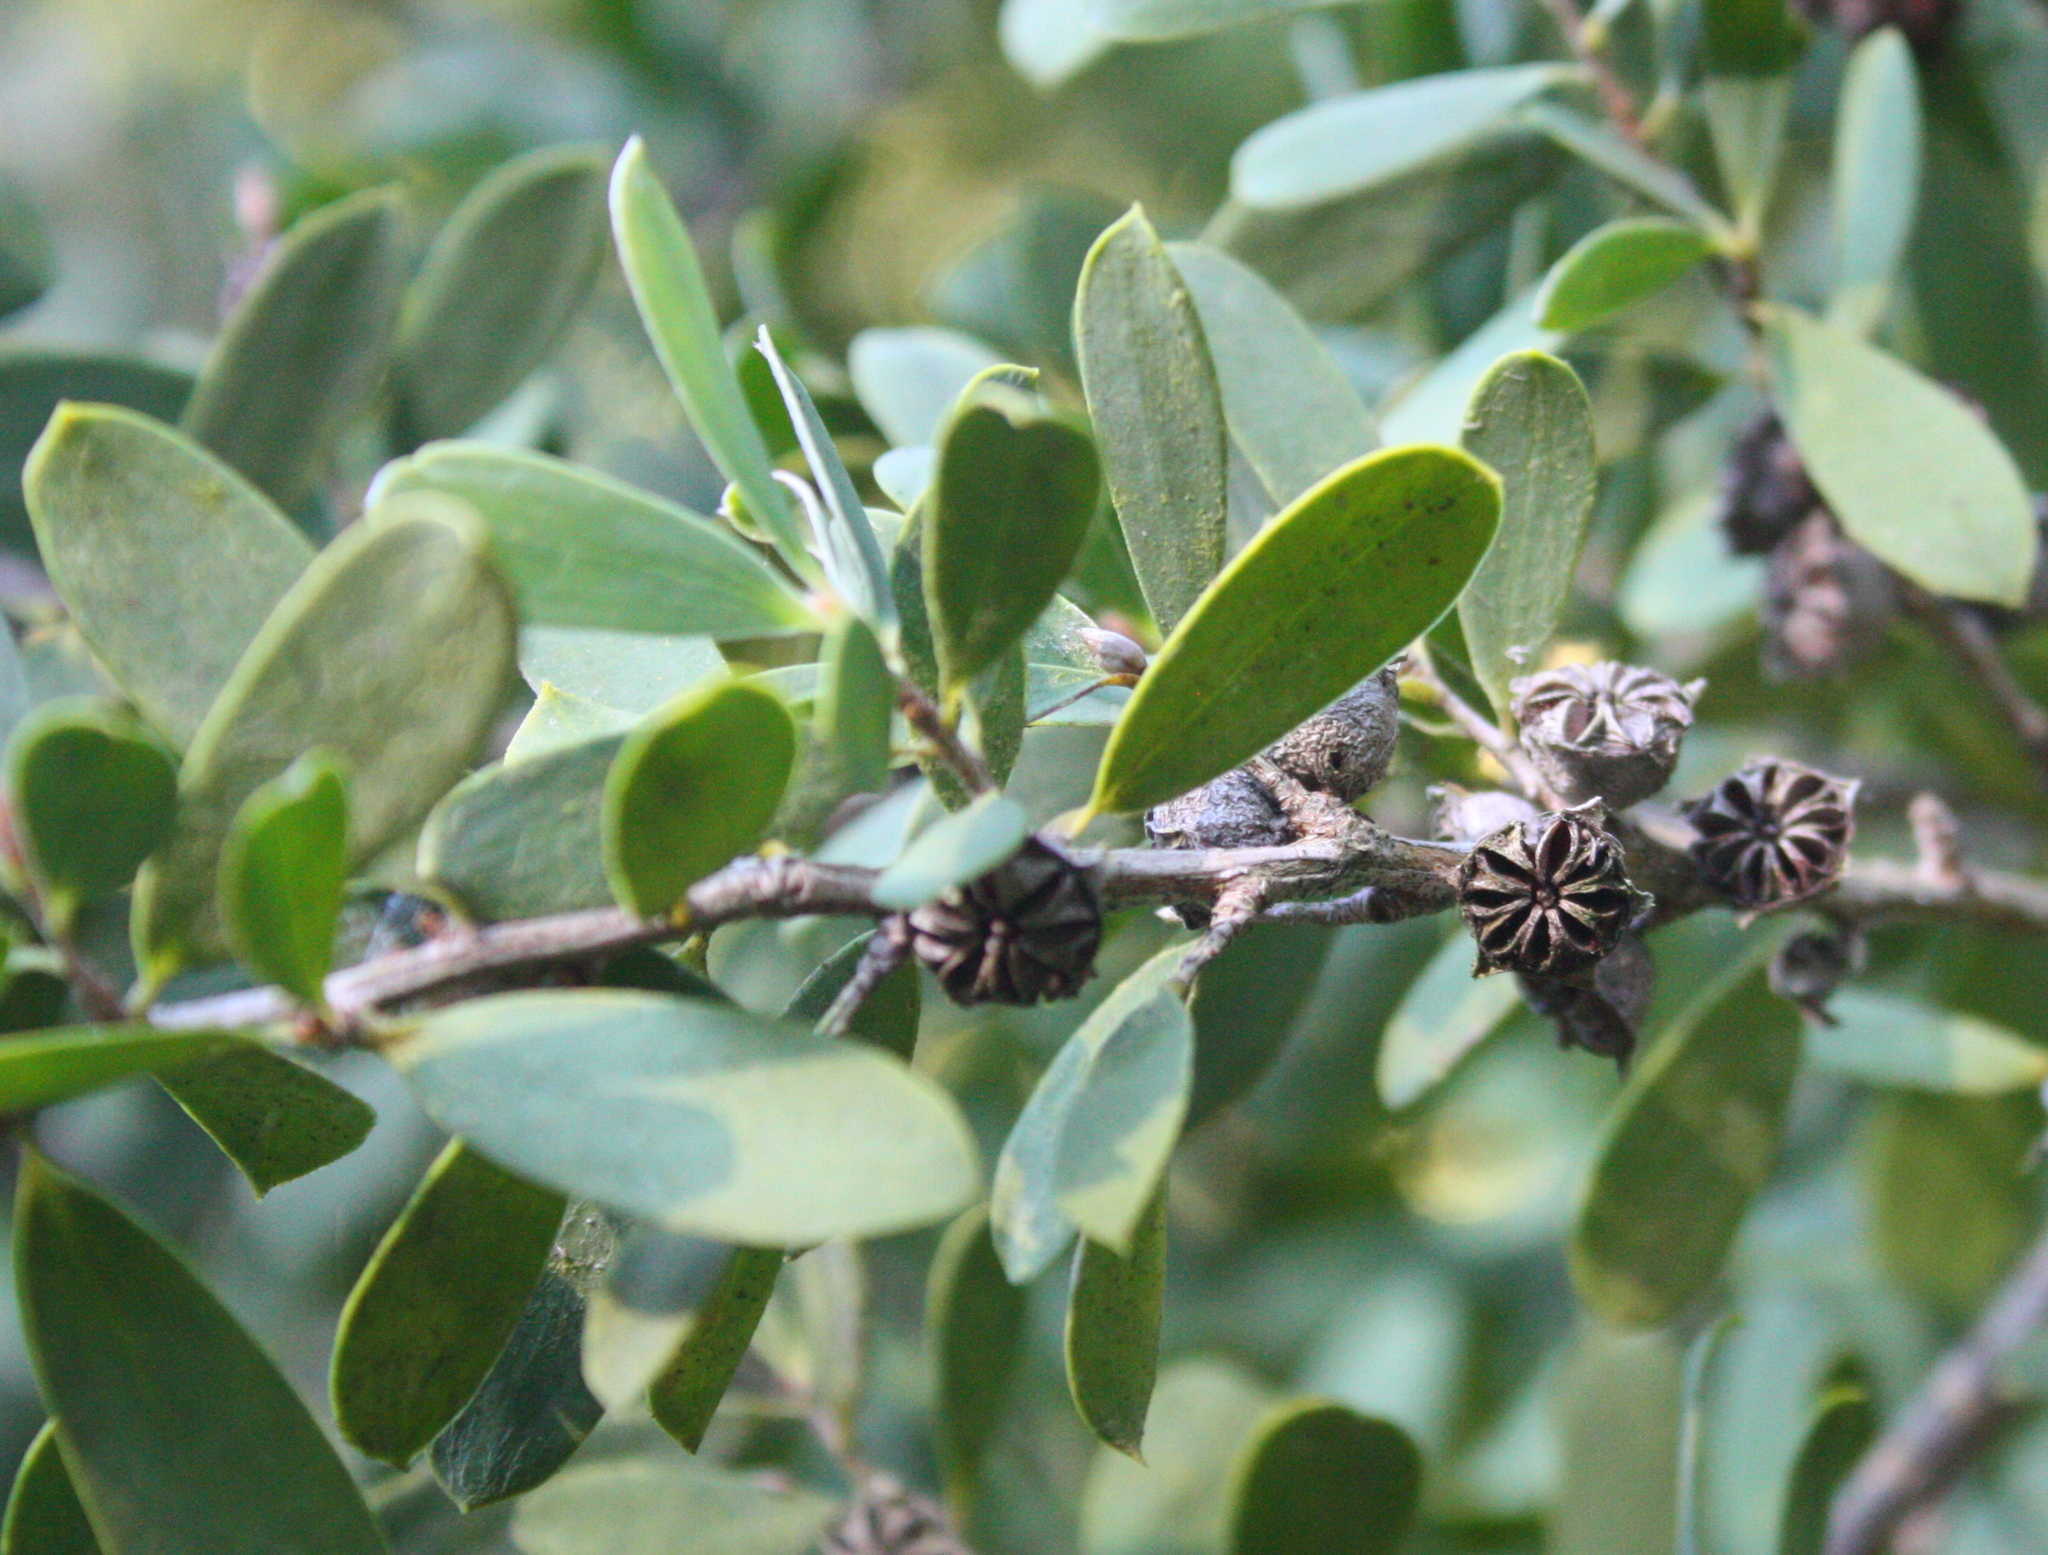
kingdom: Plantae
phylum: Tracheophyta
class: Magnoliopsida
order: Myrtales
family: Myrtaceae
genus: Leptospermum
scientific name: Leptospermum laevigatum
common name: Australian teatree
